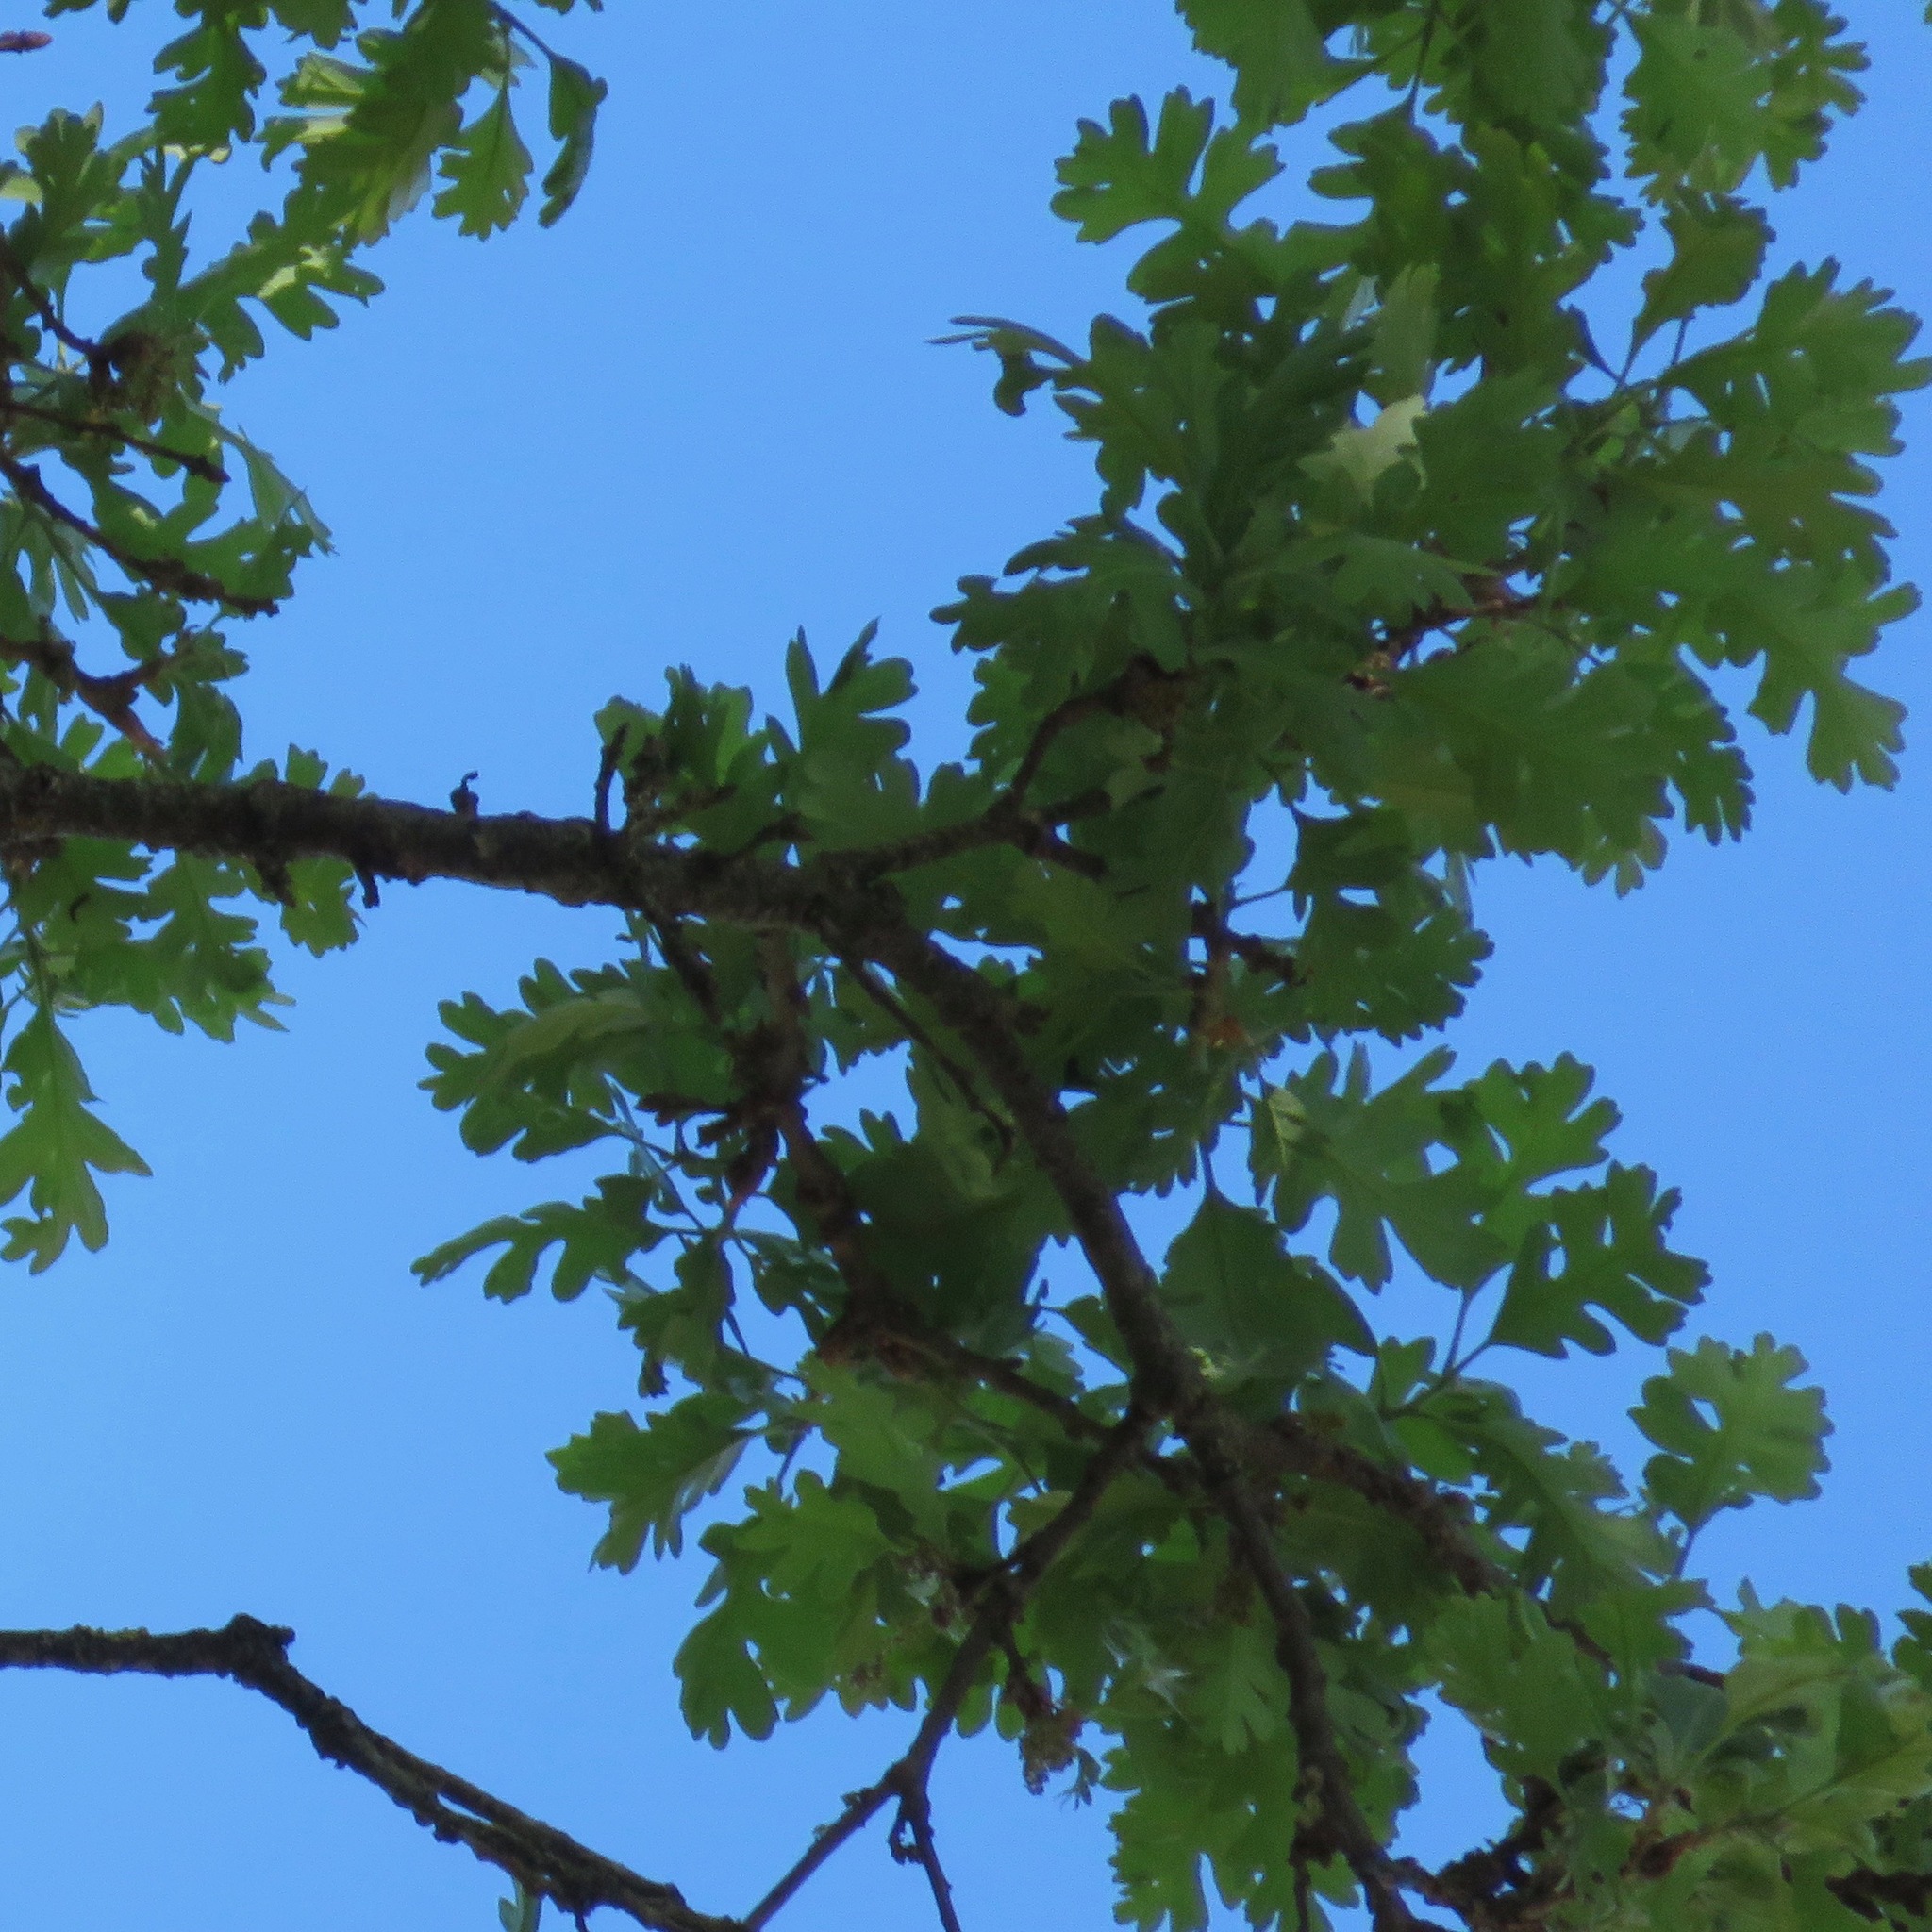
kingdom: Plantae
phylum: Tracheophyta
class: Magnoliopsida
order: Fagales
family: Fagaceae
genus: Quercus
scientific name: Quercus lobata
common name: Valley oak
